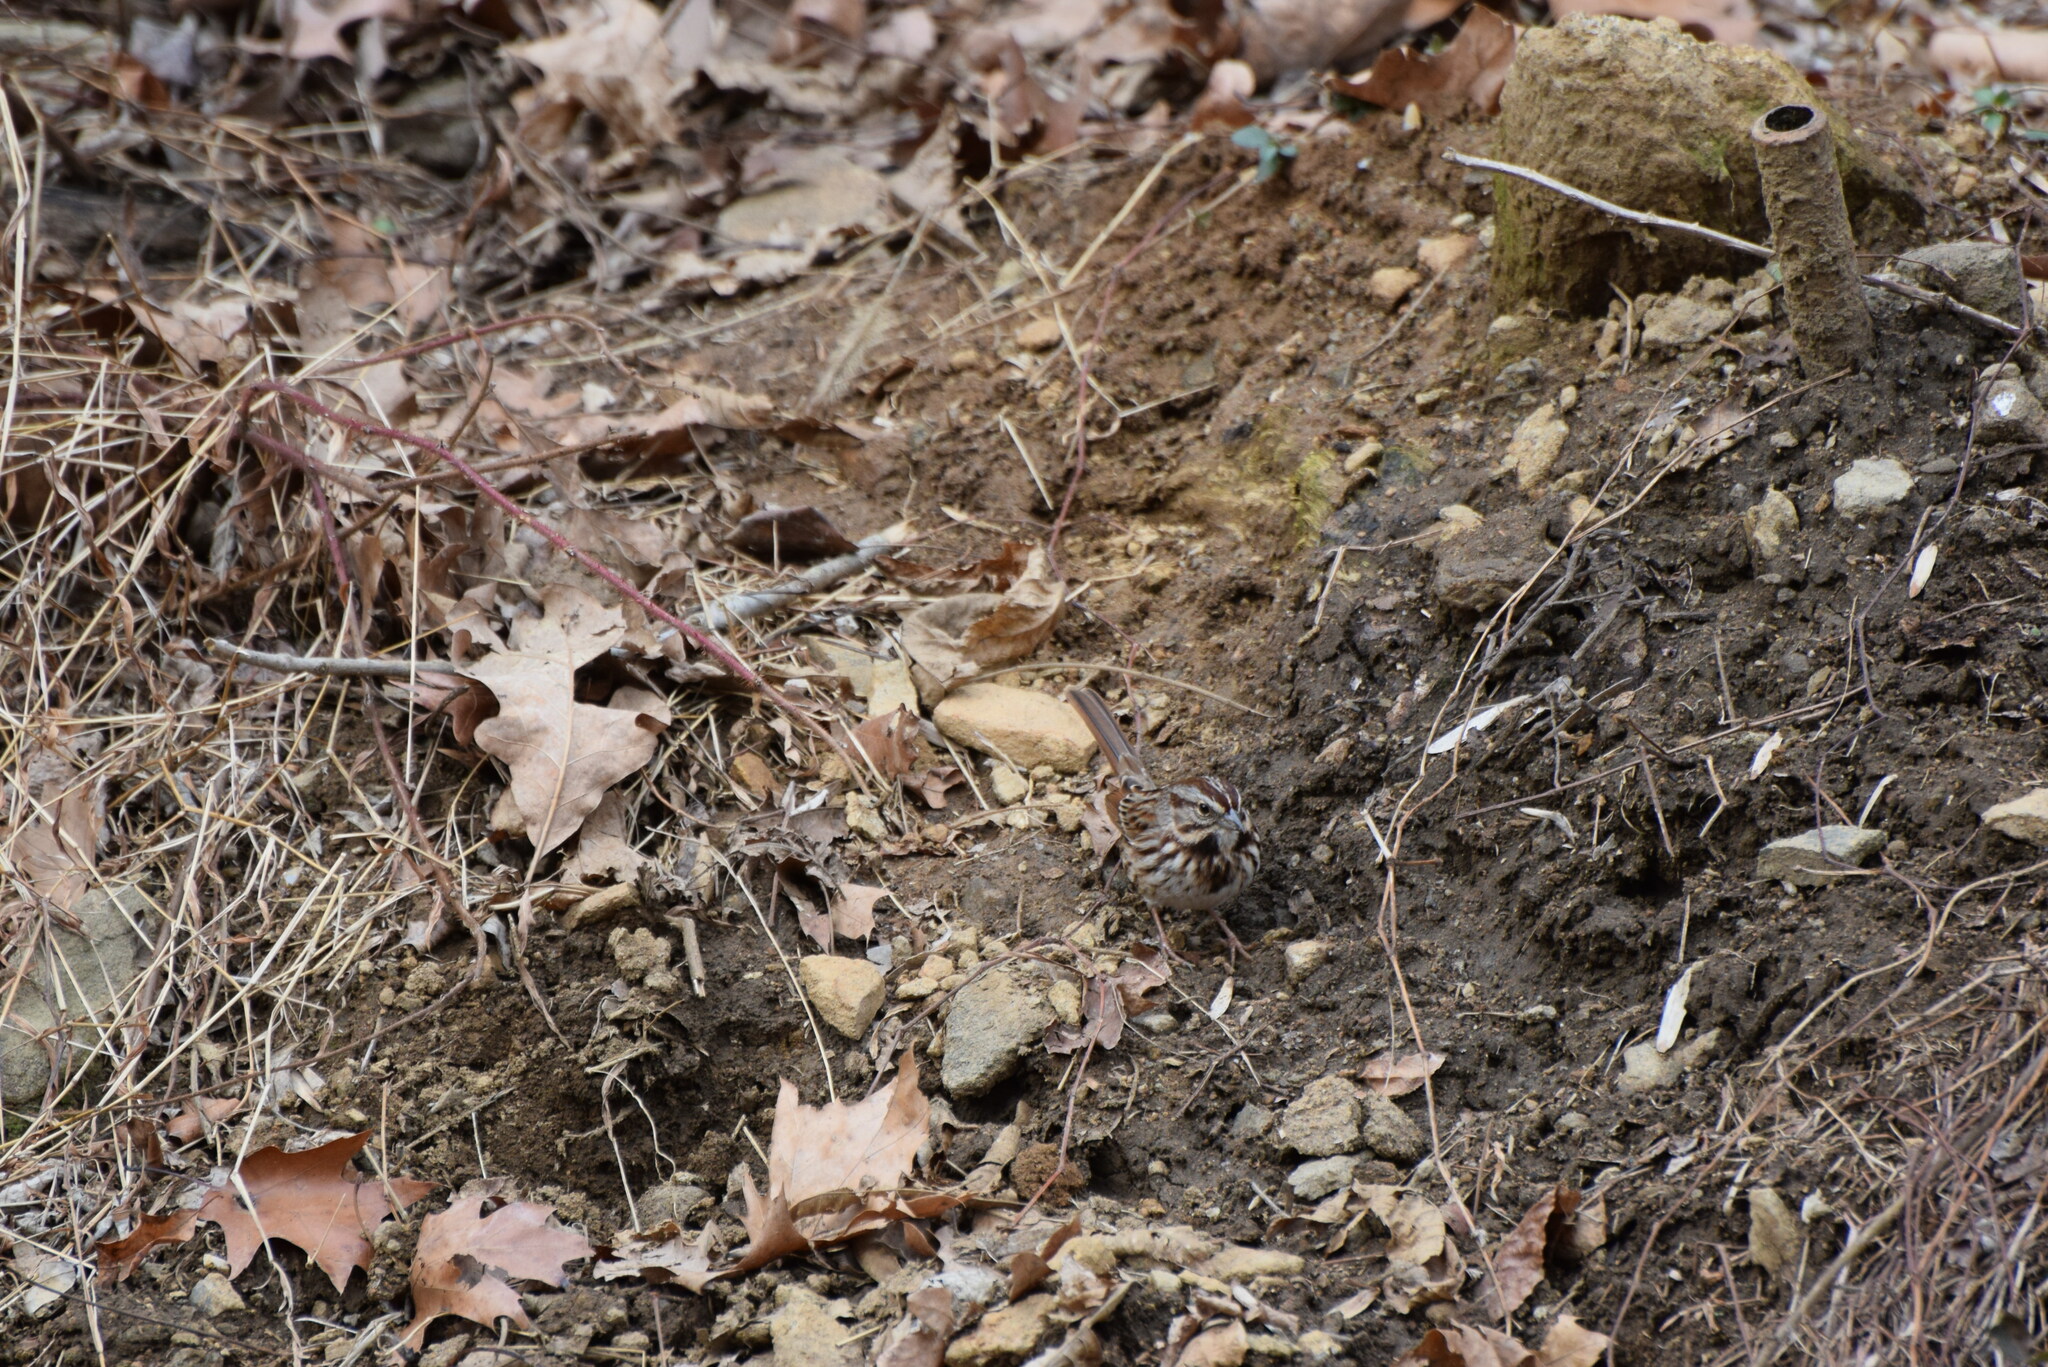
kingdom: Animalia
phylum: Chordata
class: Aves
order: Passeriformes
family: Passerellidae
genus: Melospiza
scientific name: Melospiza melodia
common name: Song sparrow
